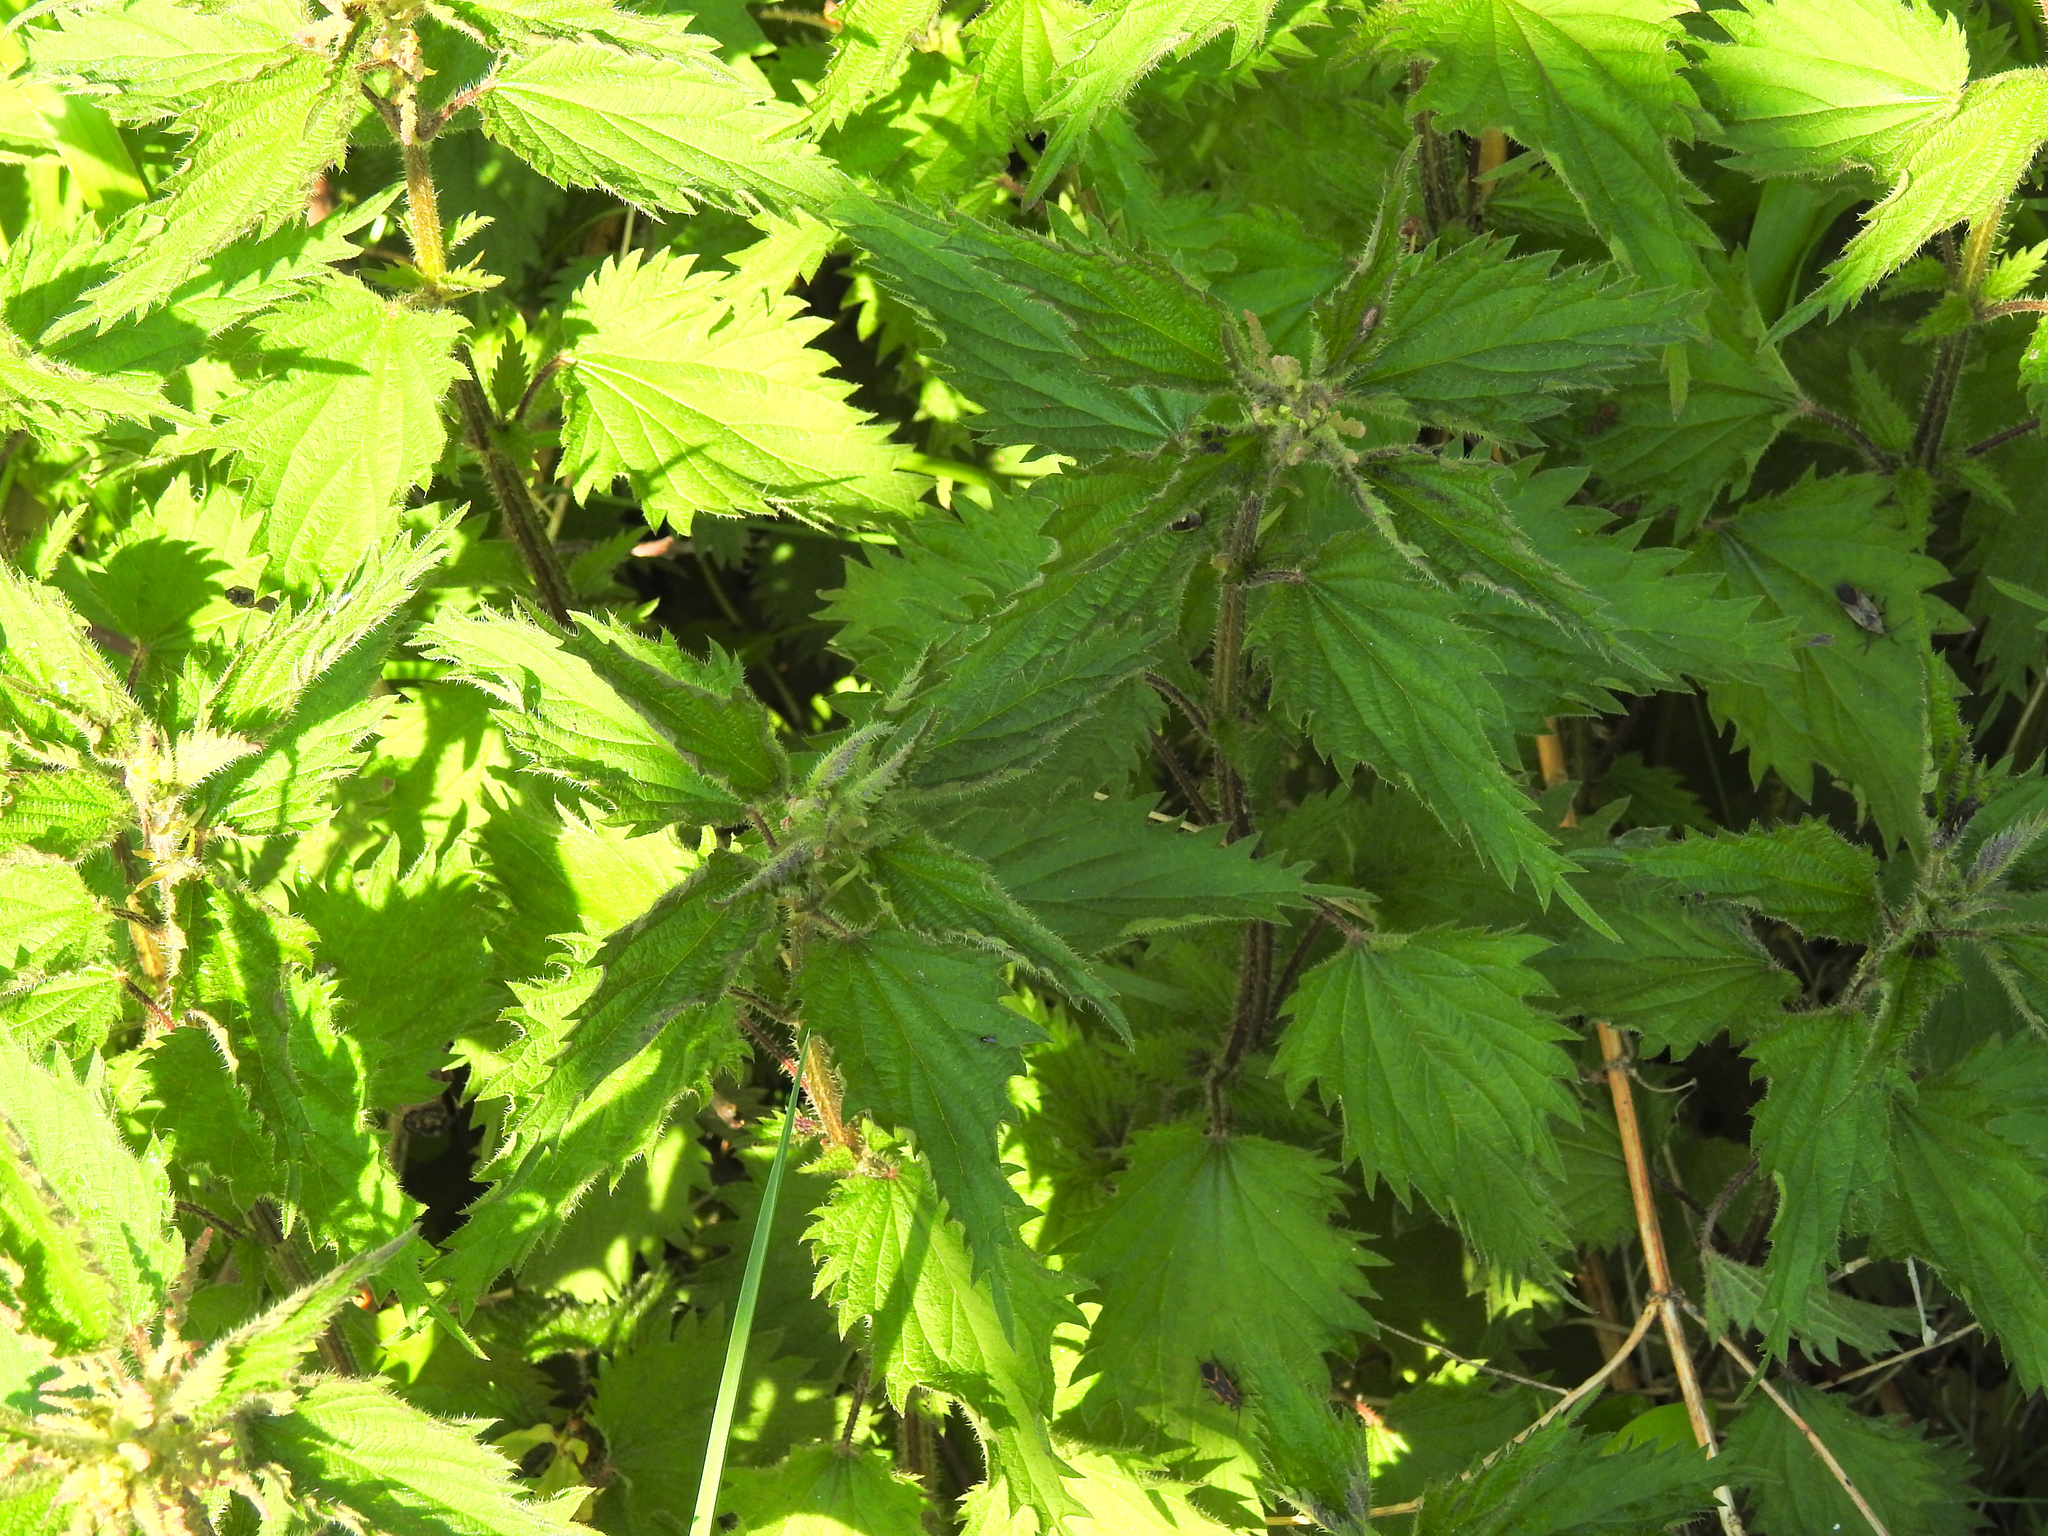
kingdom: Plantae
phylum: Tracheophyta
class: Magnoliopsida
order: Rosales
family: Urticaceae
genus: Urtica
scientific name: Urtica dioica
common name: Common nettle
